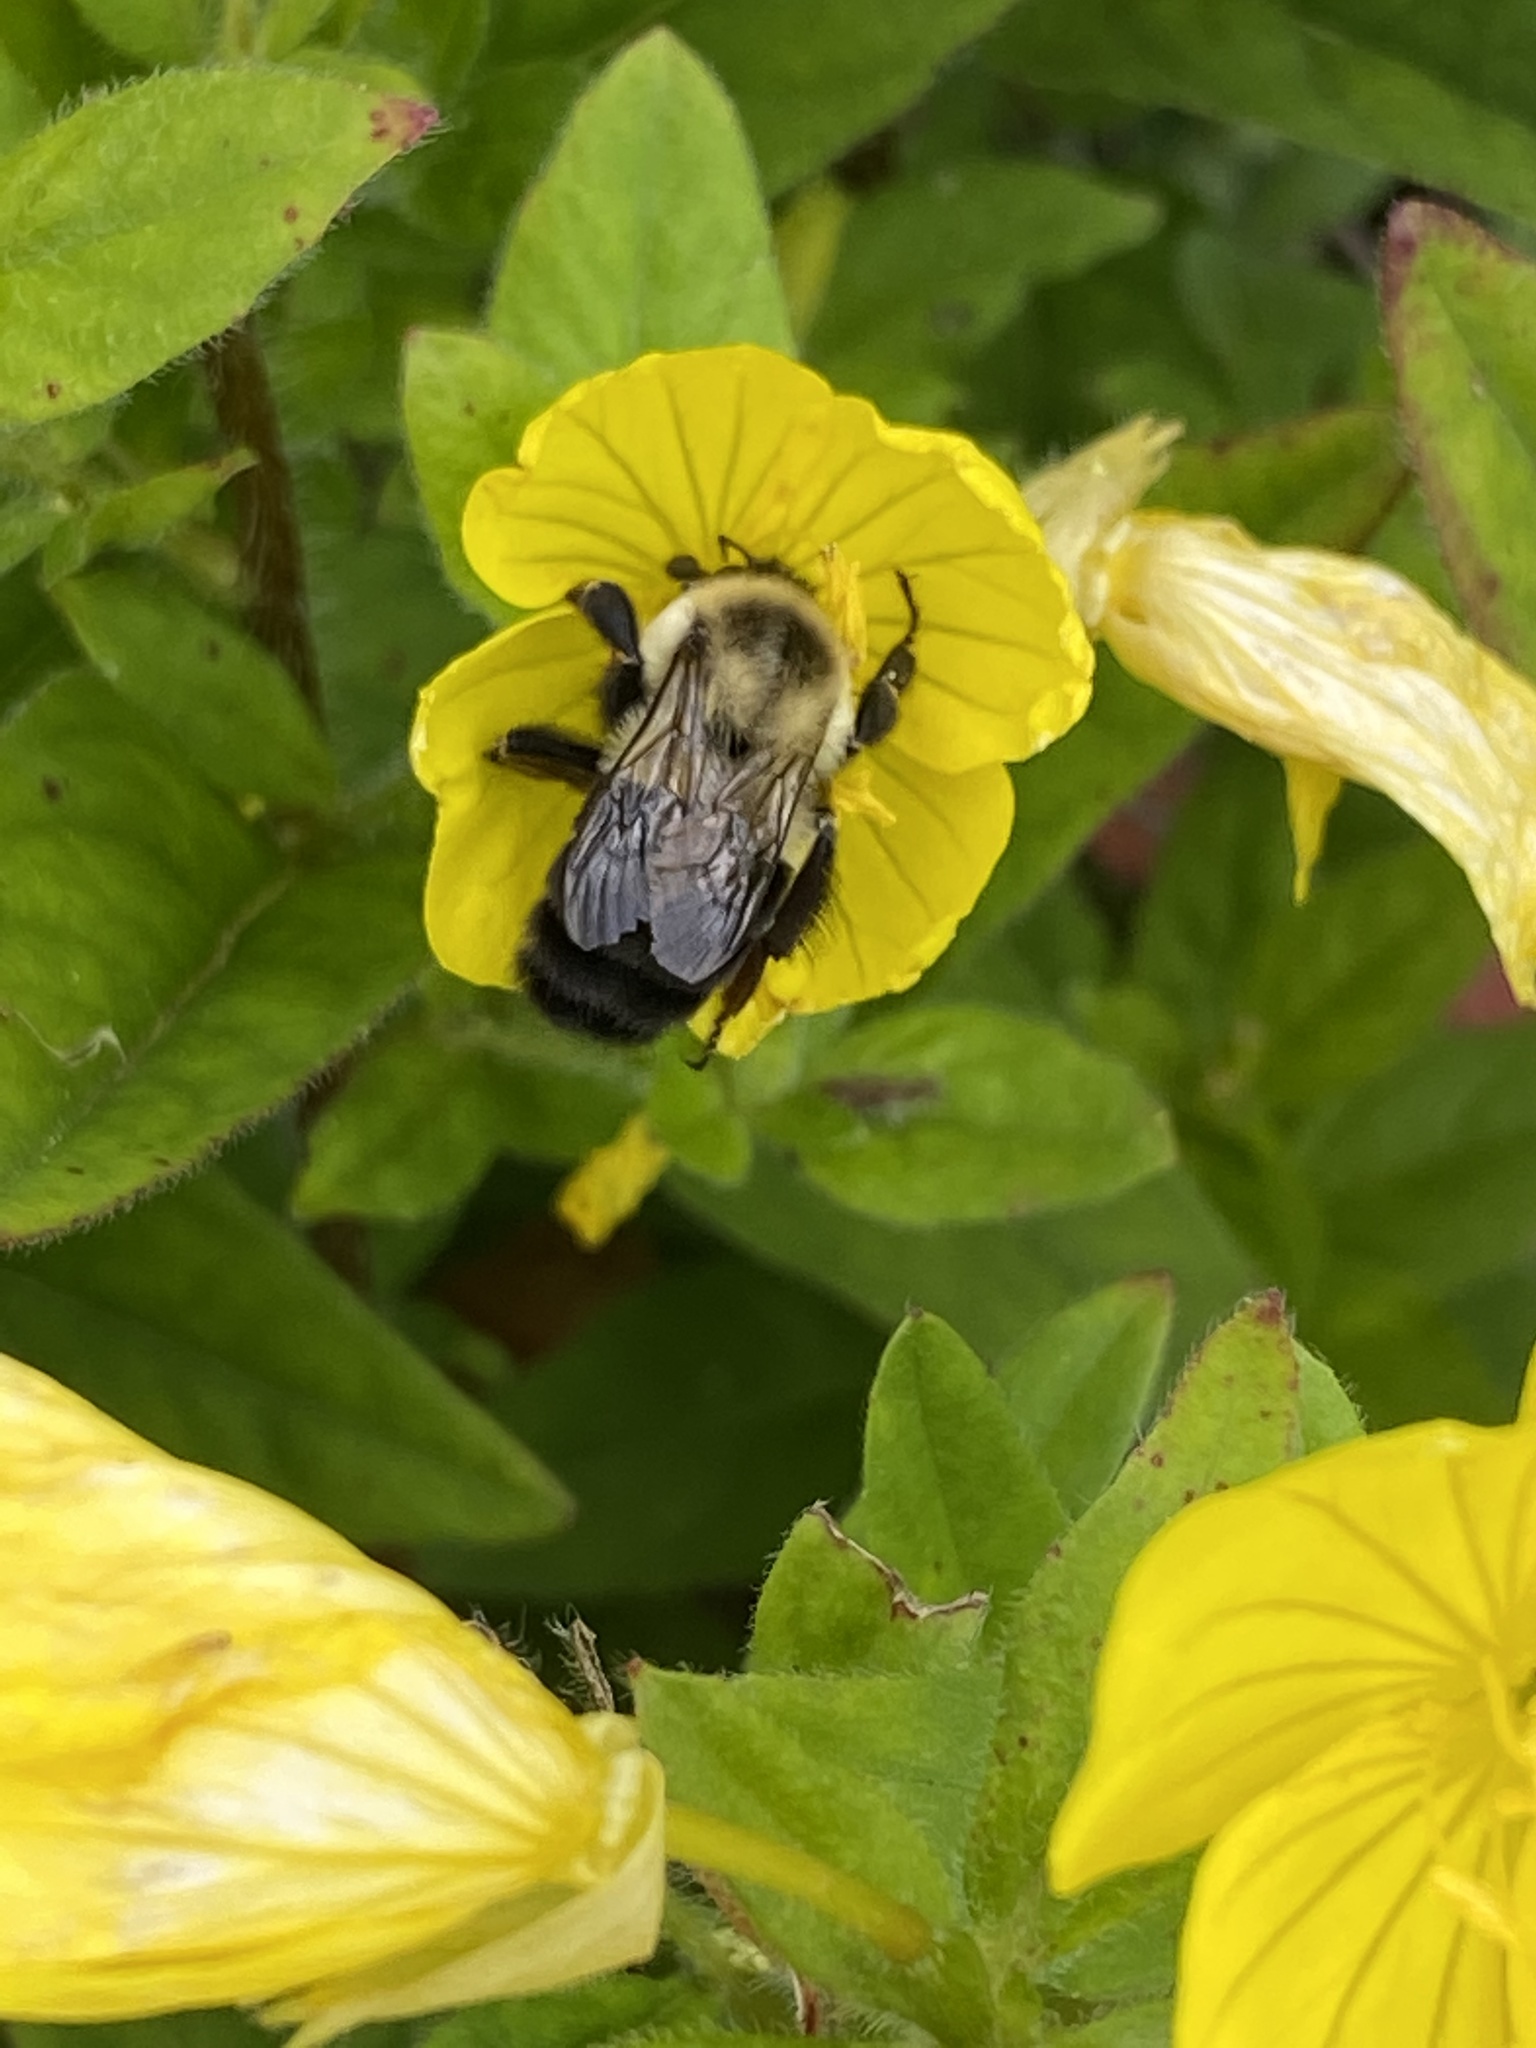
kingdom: Animalia
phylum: Arthropoda
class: Insecta
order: Hymenoptera
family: Apidae
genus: Bombus
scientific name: Bombus impatiens
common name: Common eastern bumble bee
